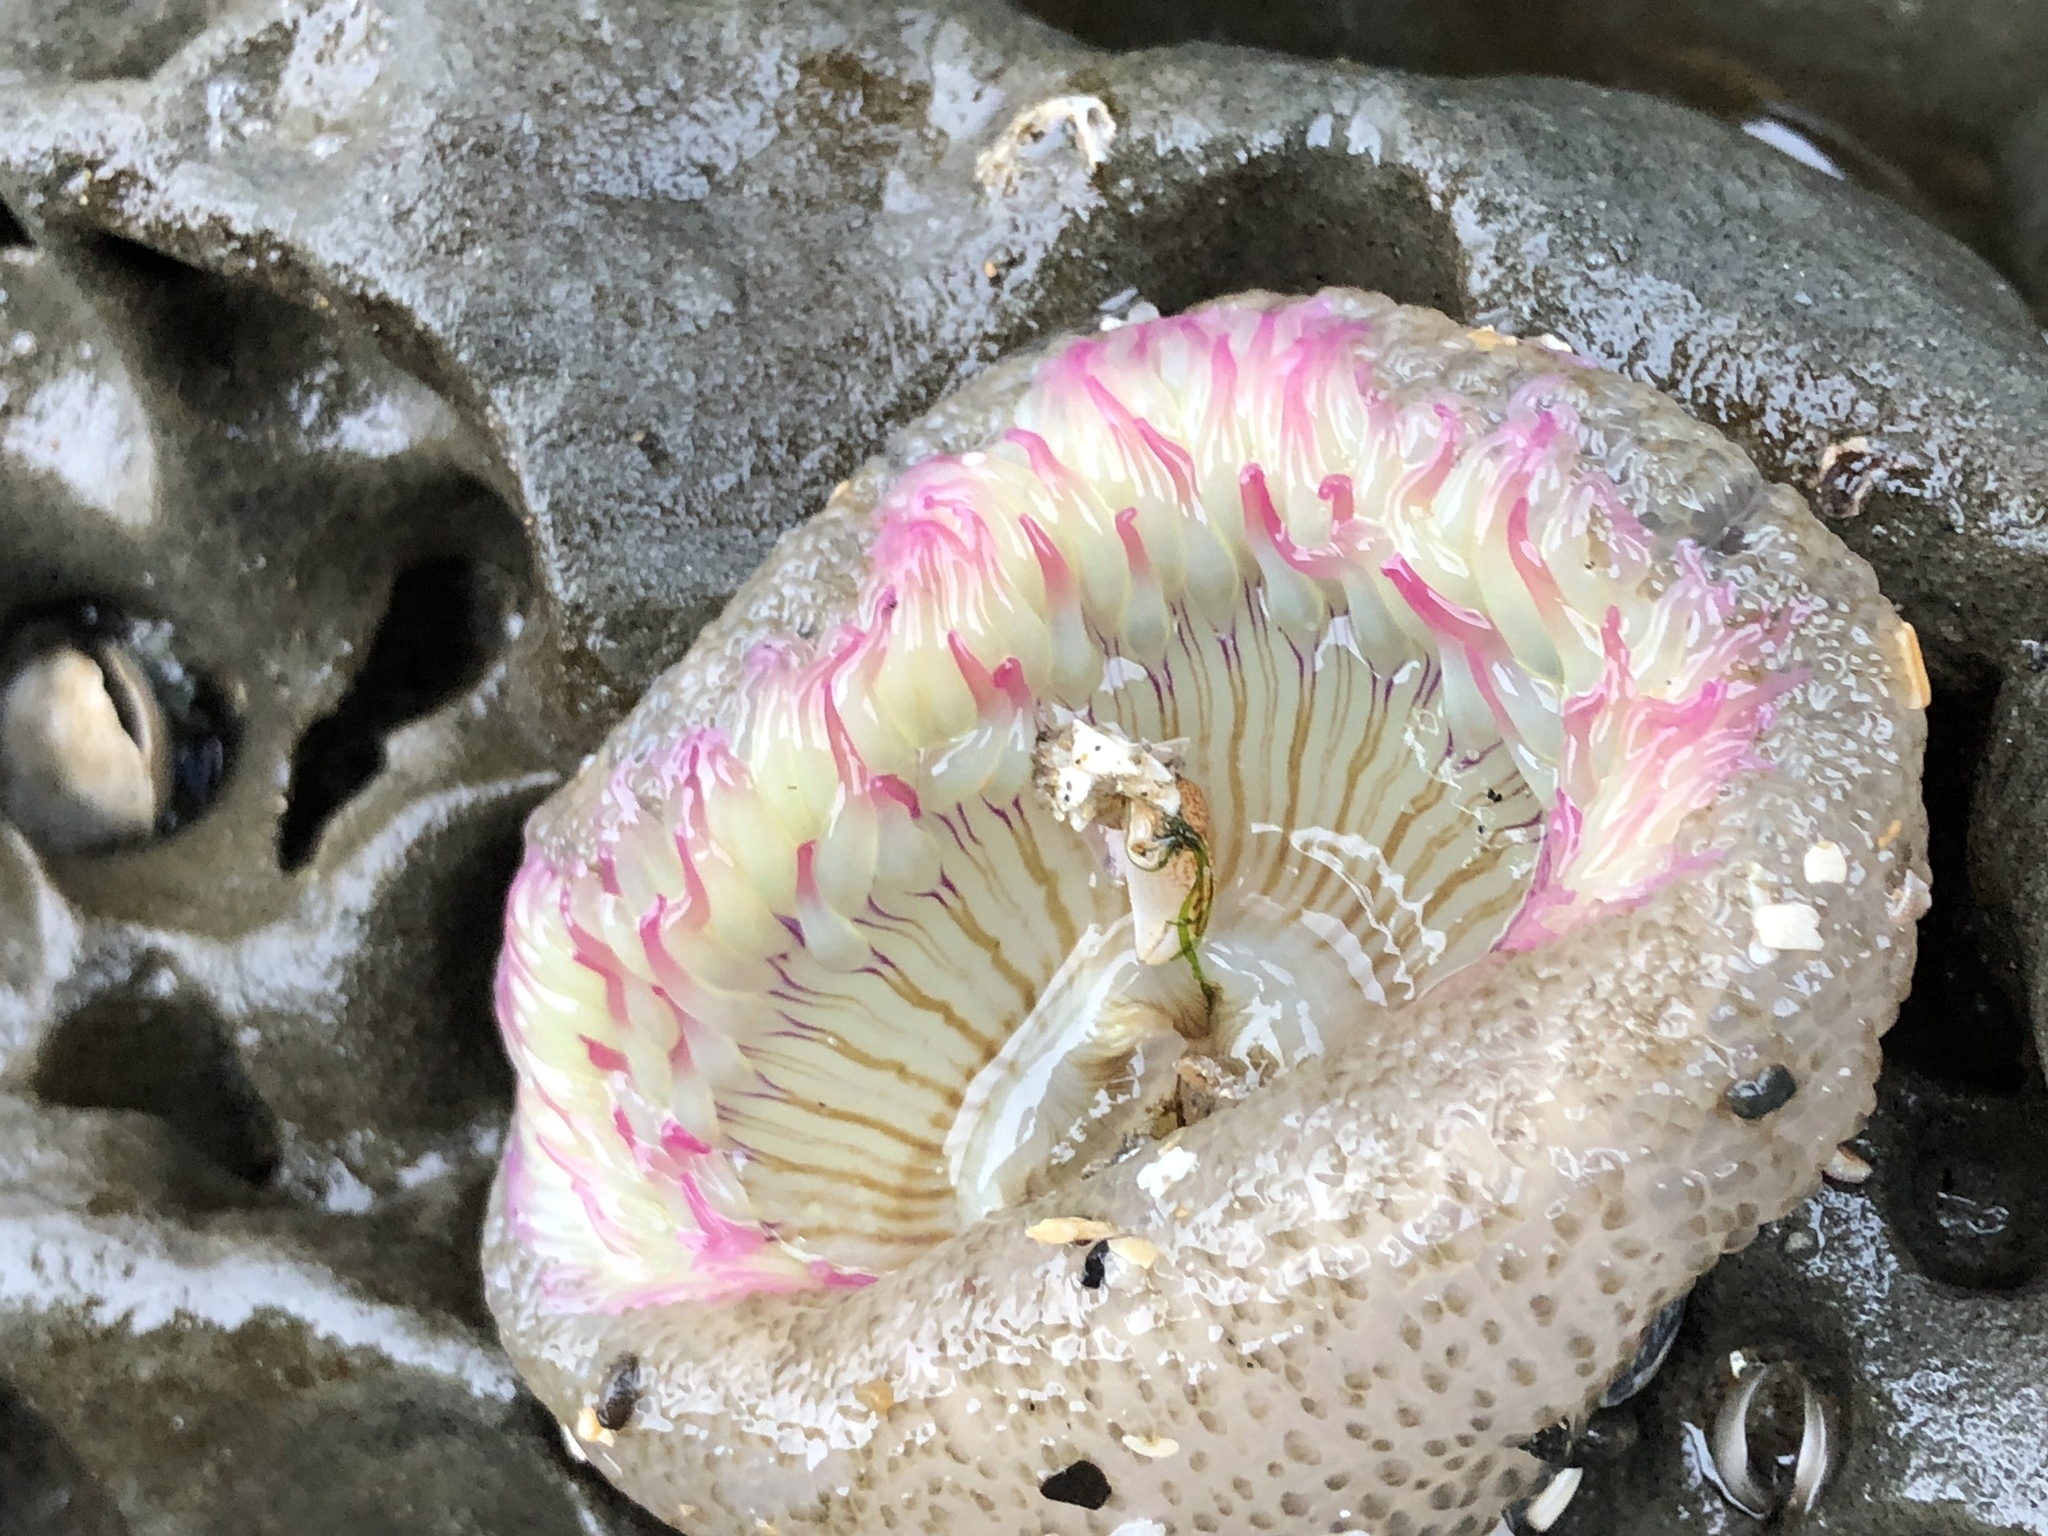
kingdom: Animalia
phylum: Cnidaria
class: Anthozoa
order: Actiniaria
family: Actiniidae
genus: Anthopleura
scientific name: Anthopleura elegantissima
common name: Clonal anemone
